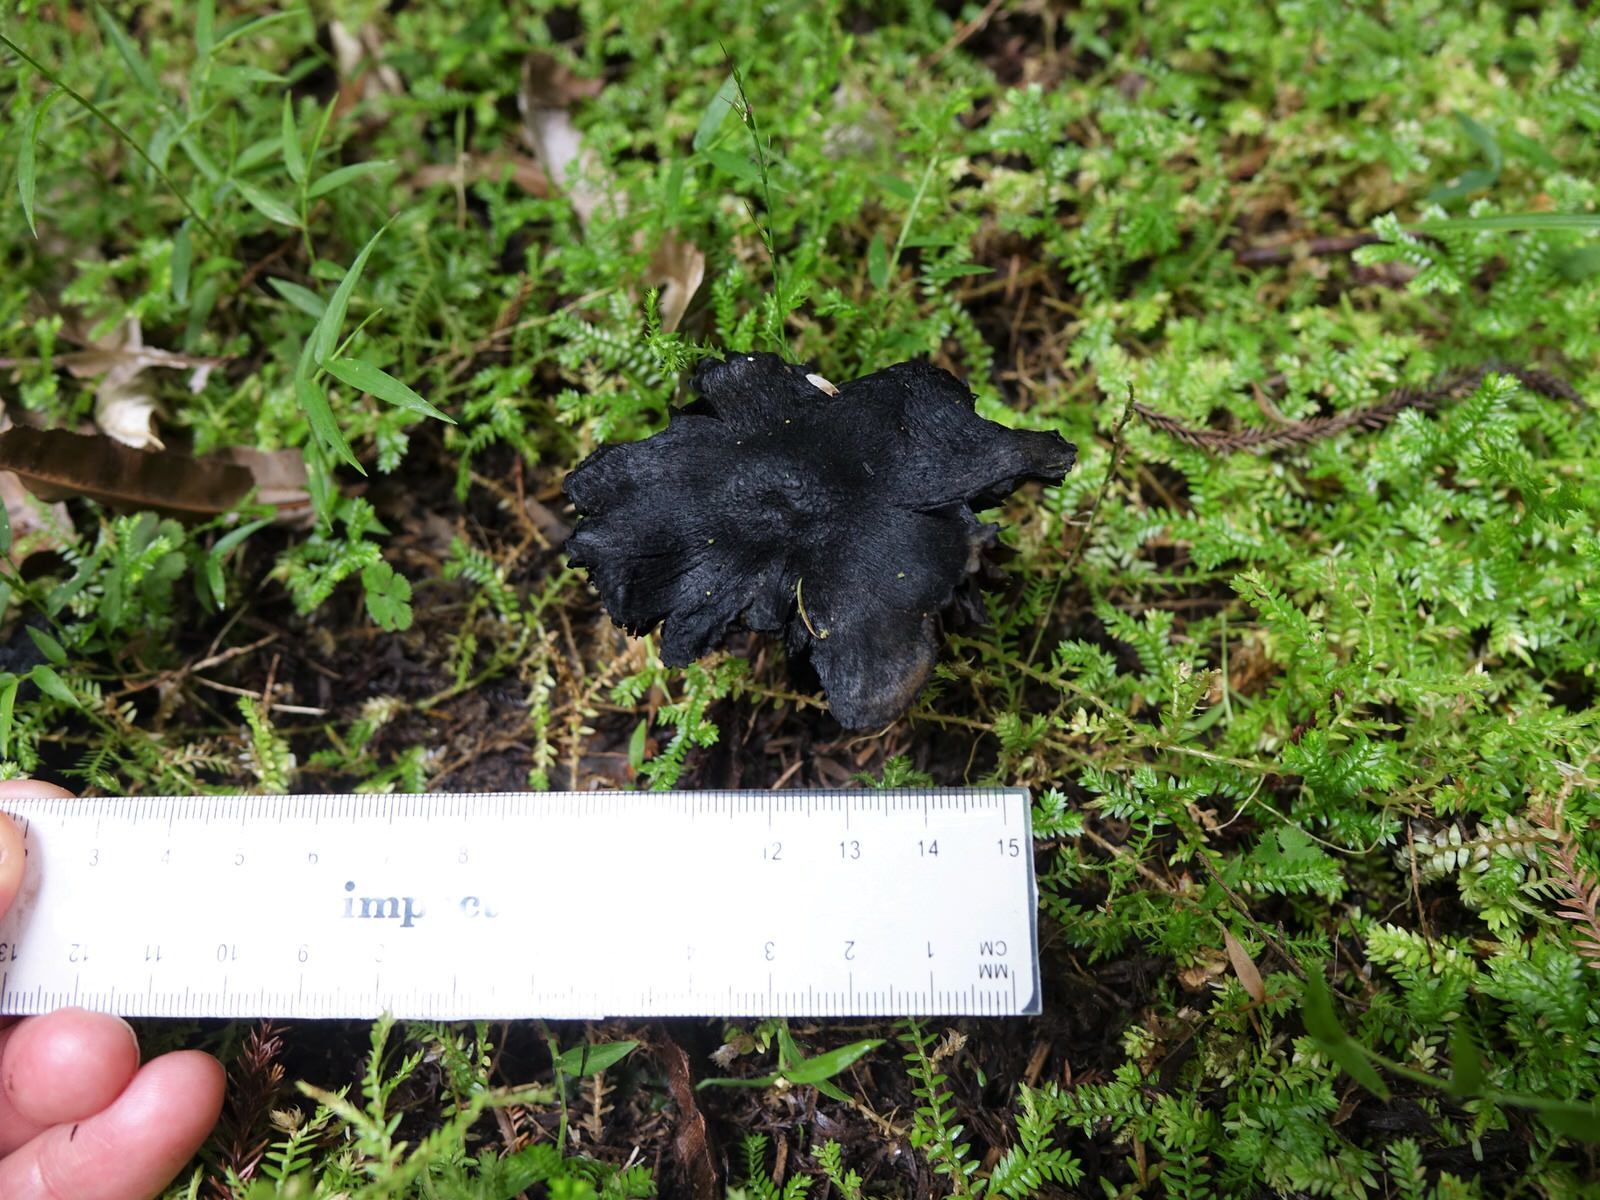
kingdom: Fungi
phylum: Basidiomycota
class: Agaricomycetes
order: Agaricales
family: Hygrophoraceae
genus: Hygrocybe
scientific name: Hygrocybe astatogala
